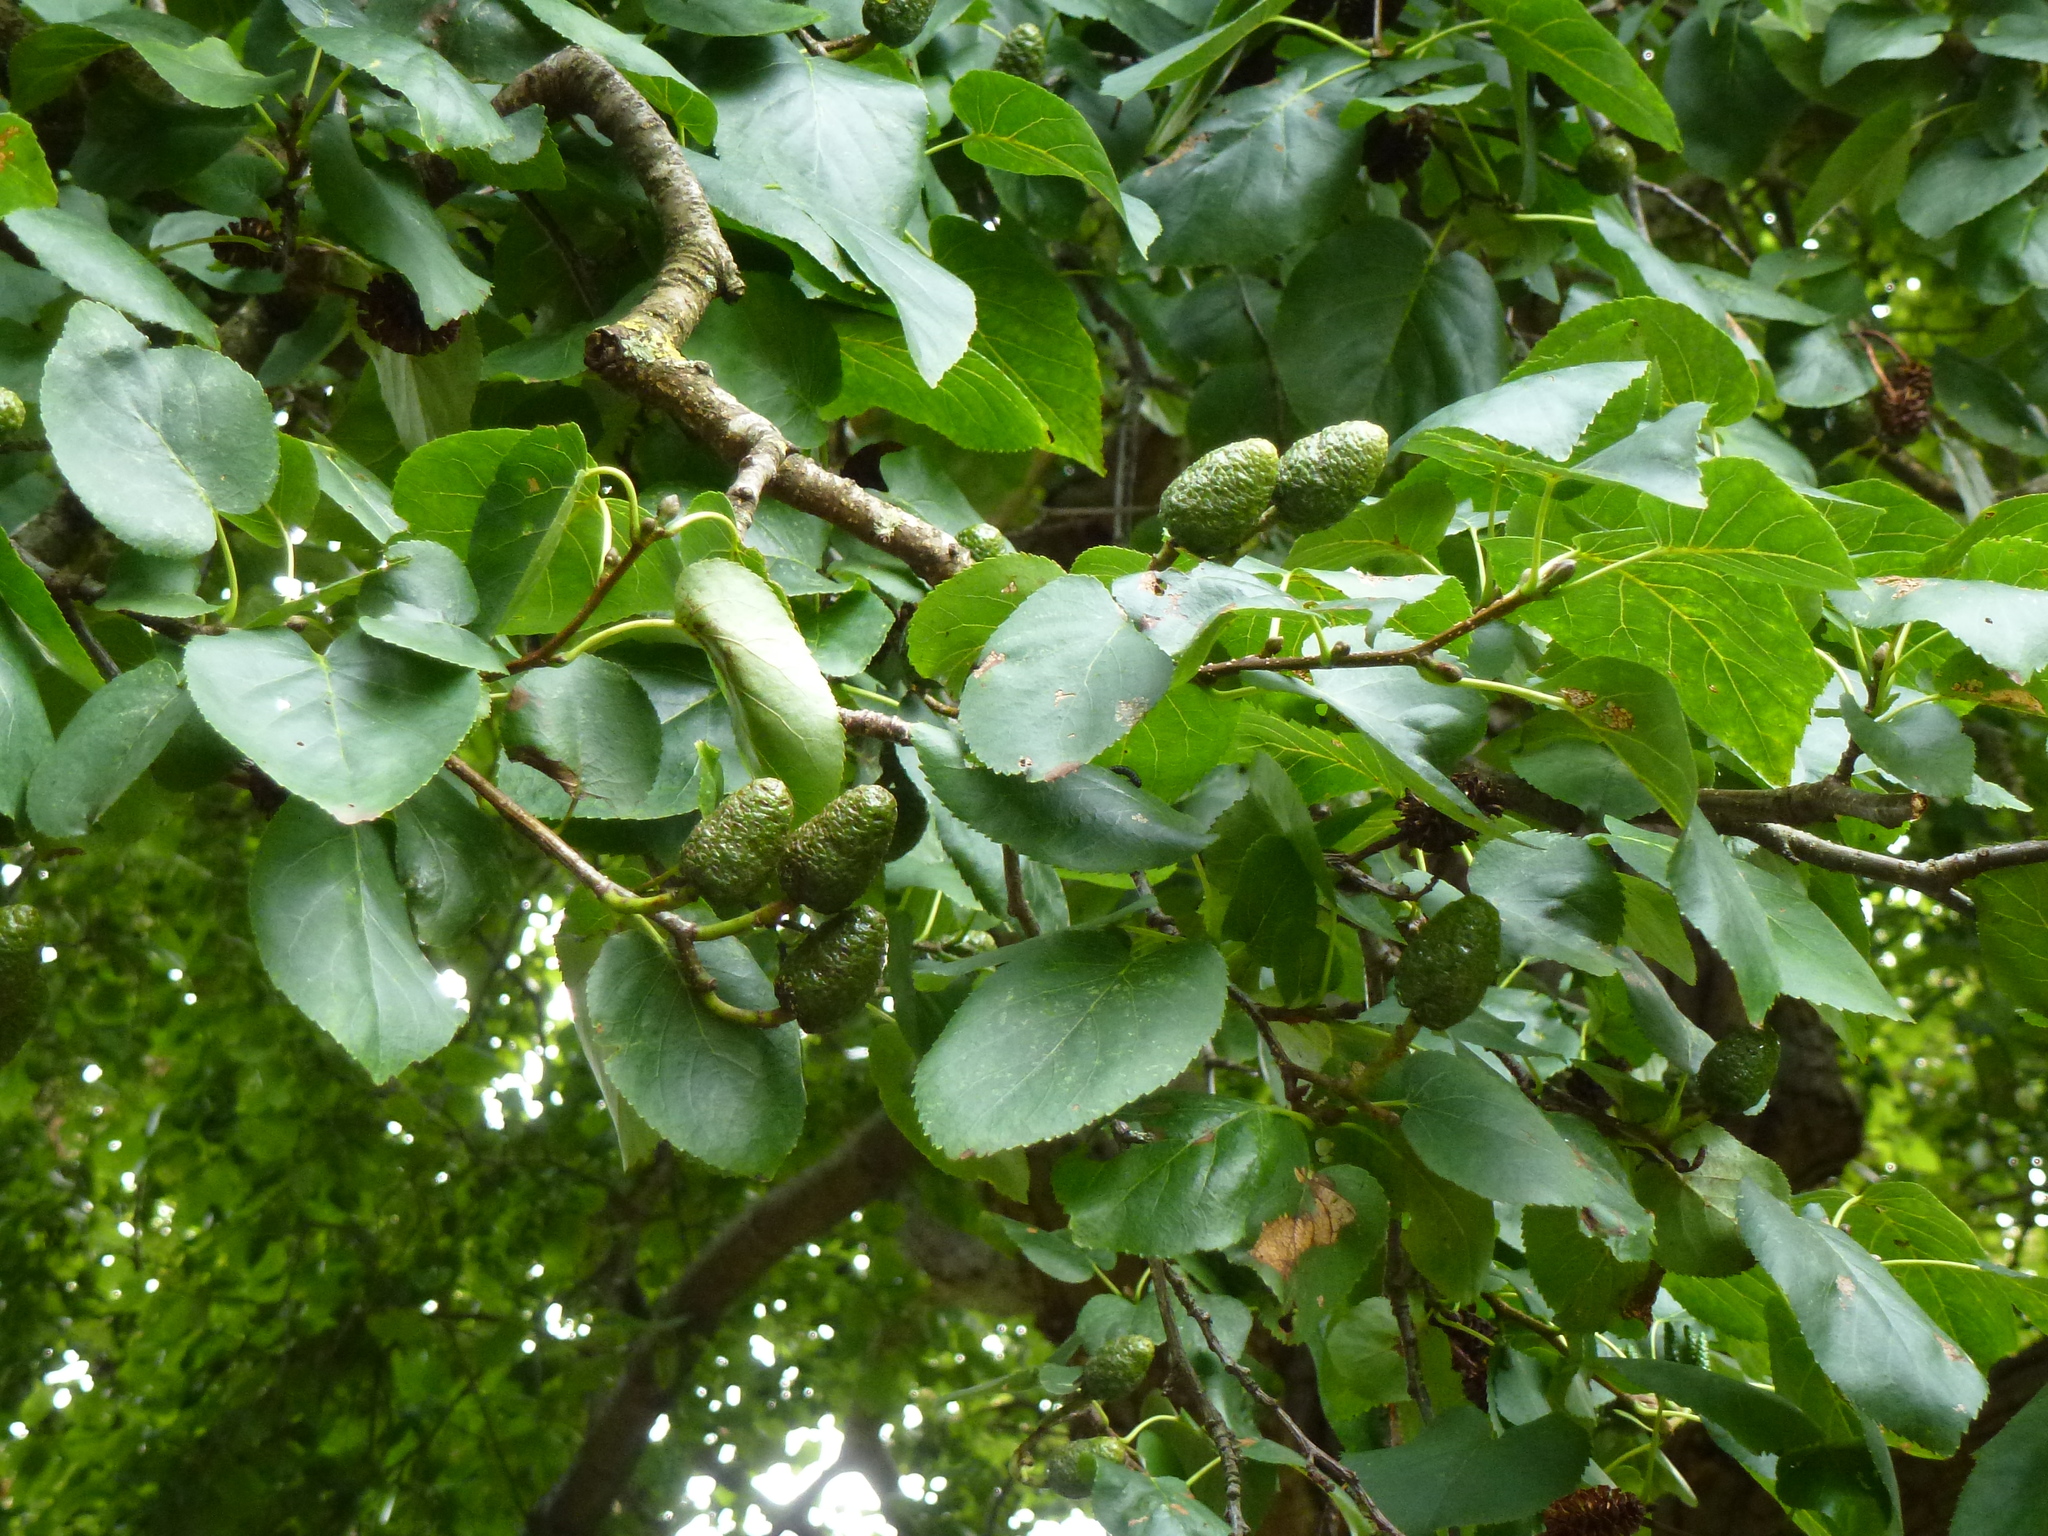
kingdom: Plantae
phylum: Tracheophyta
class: Magnoliopsida
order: Fagales
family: Betulaceae
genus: Alnus
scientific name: Alnus cordata
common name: Italian alder
